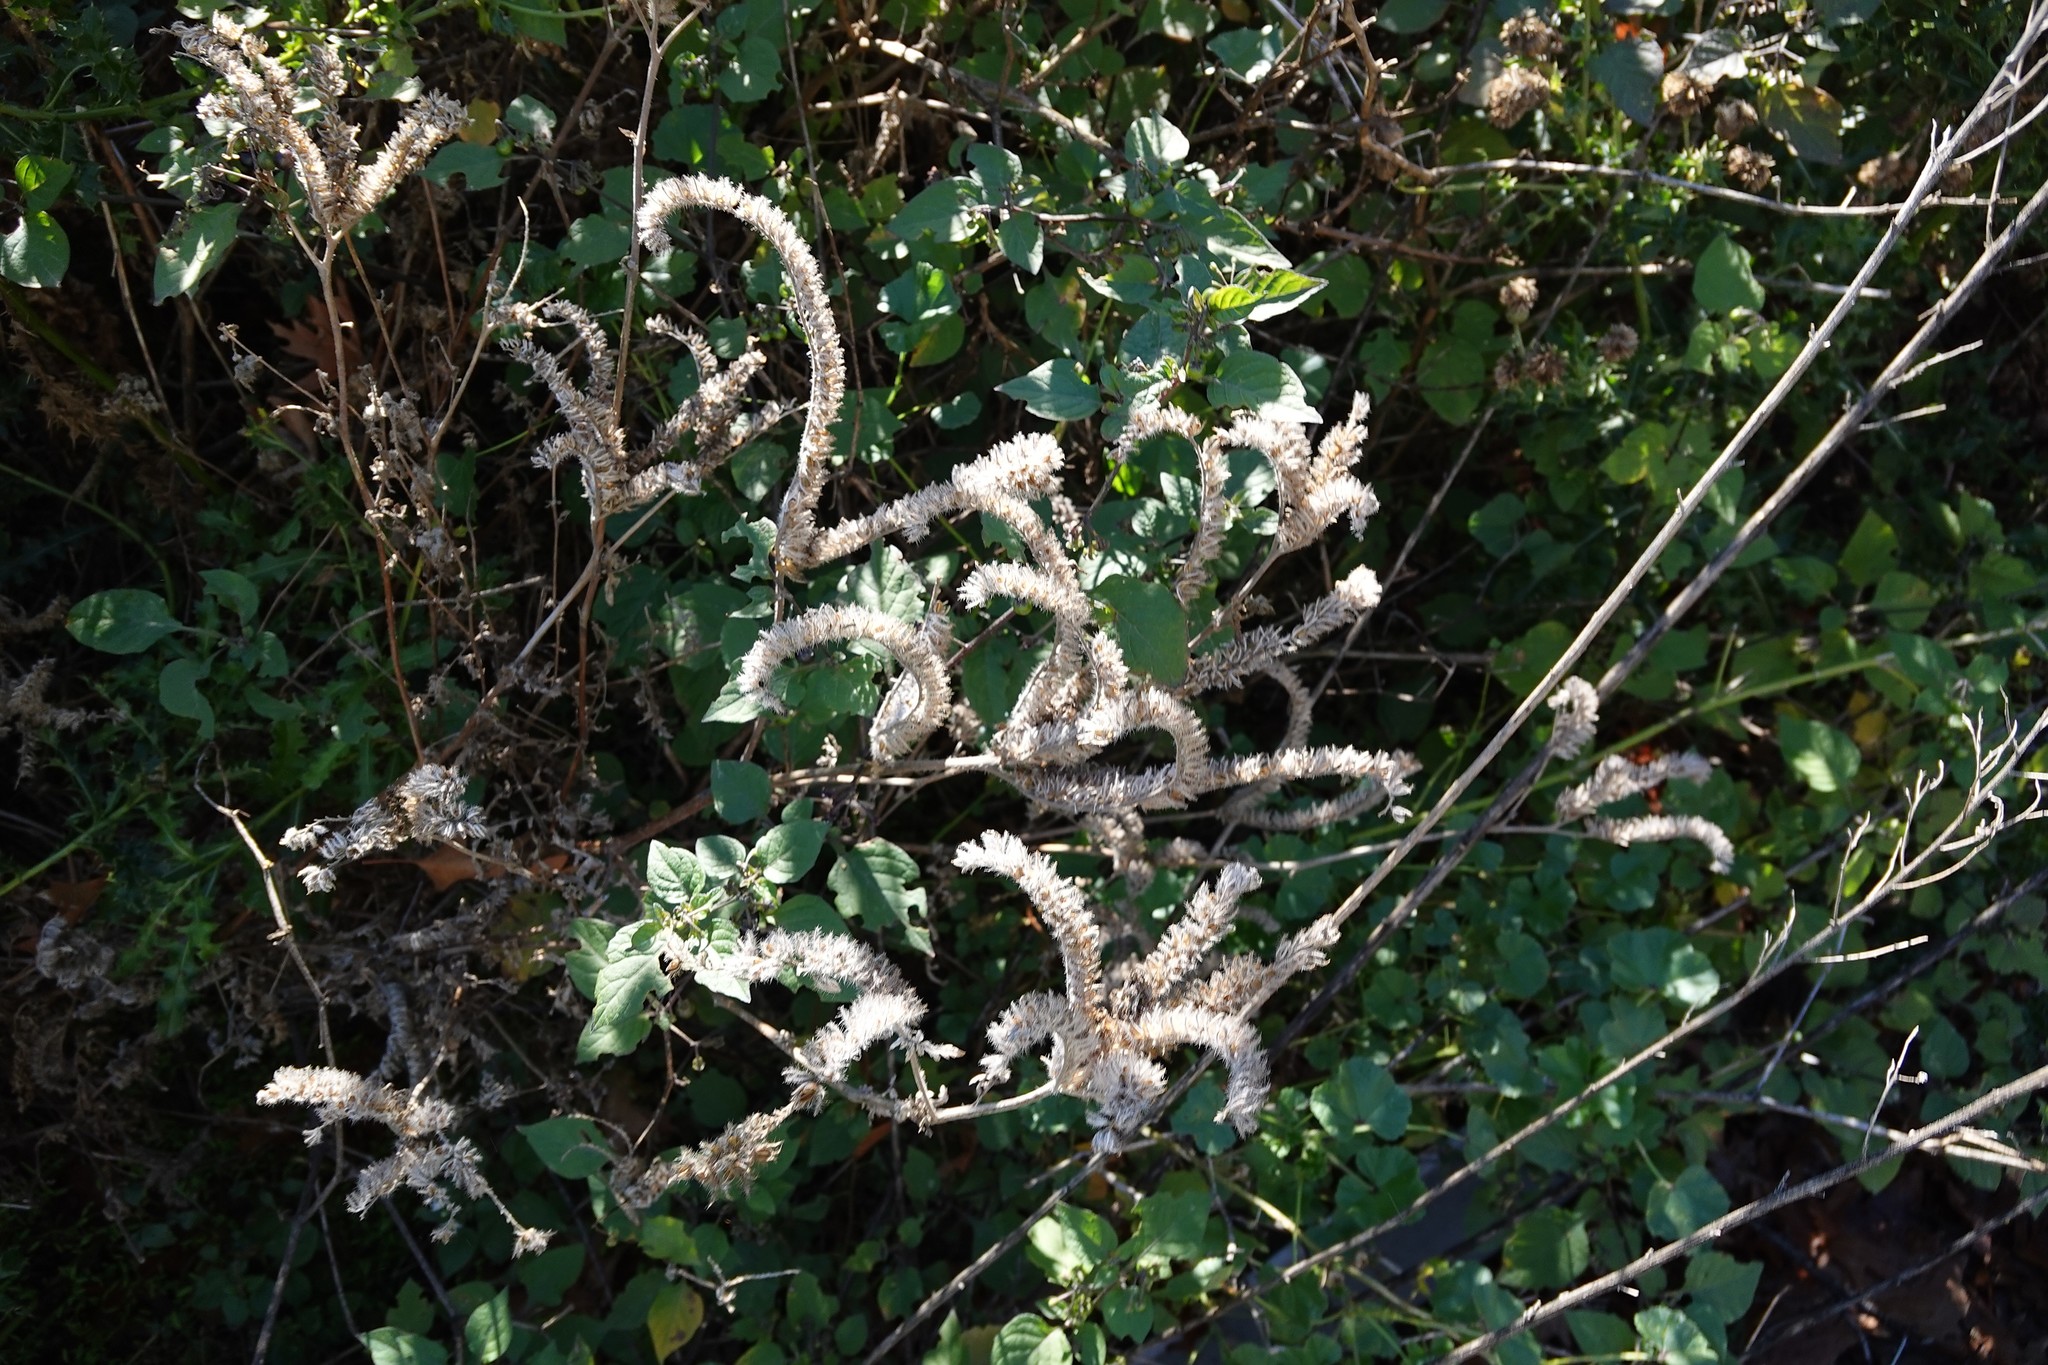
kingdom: Plantae
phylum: Tracheophyta
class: Magnoliopsida
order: Boraginales
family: Boraginaceae
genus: Echium
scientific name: Echium vulgare
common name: Common viper's bugloss
